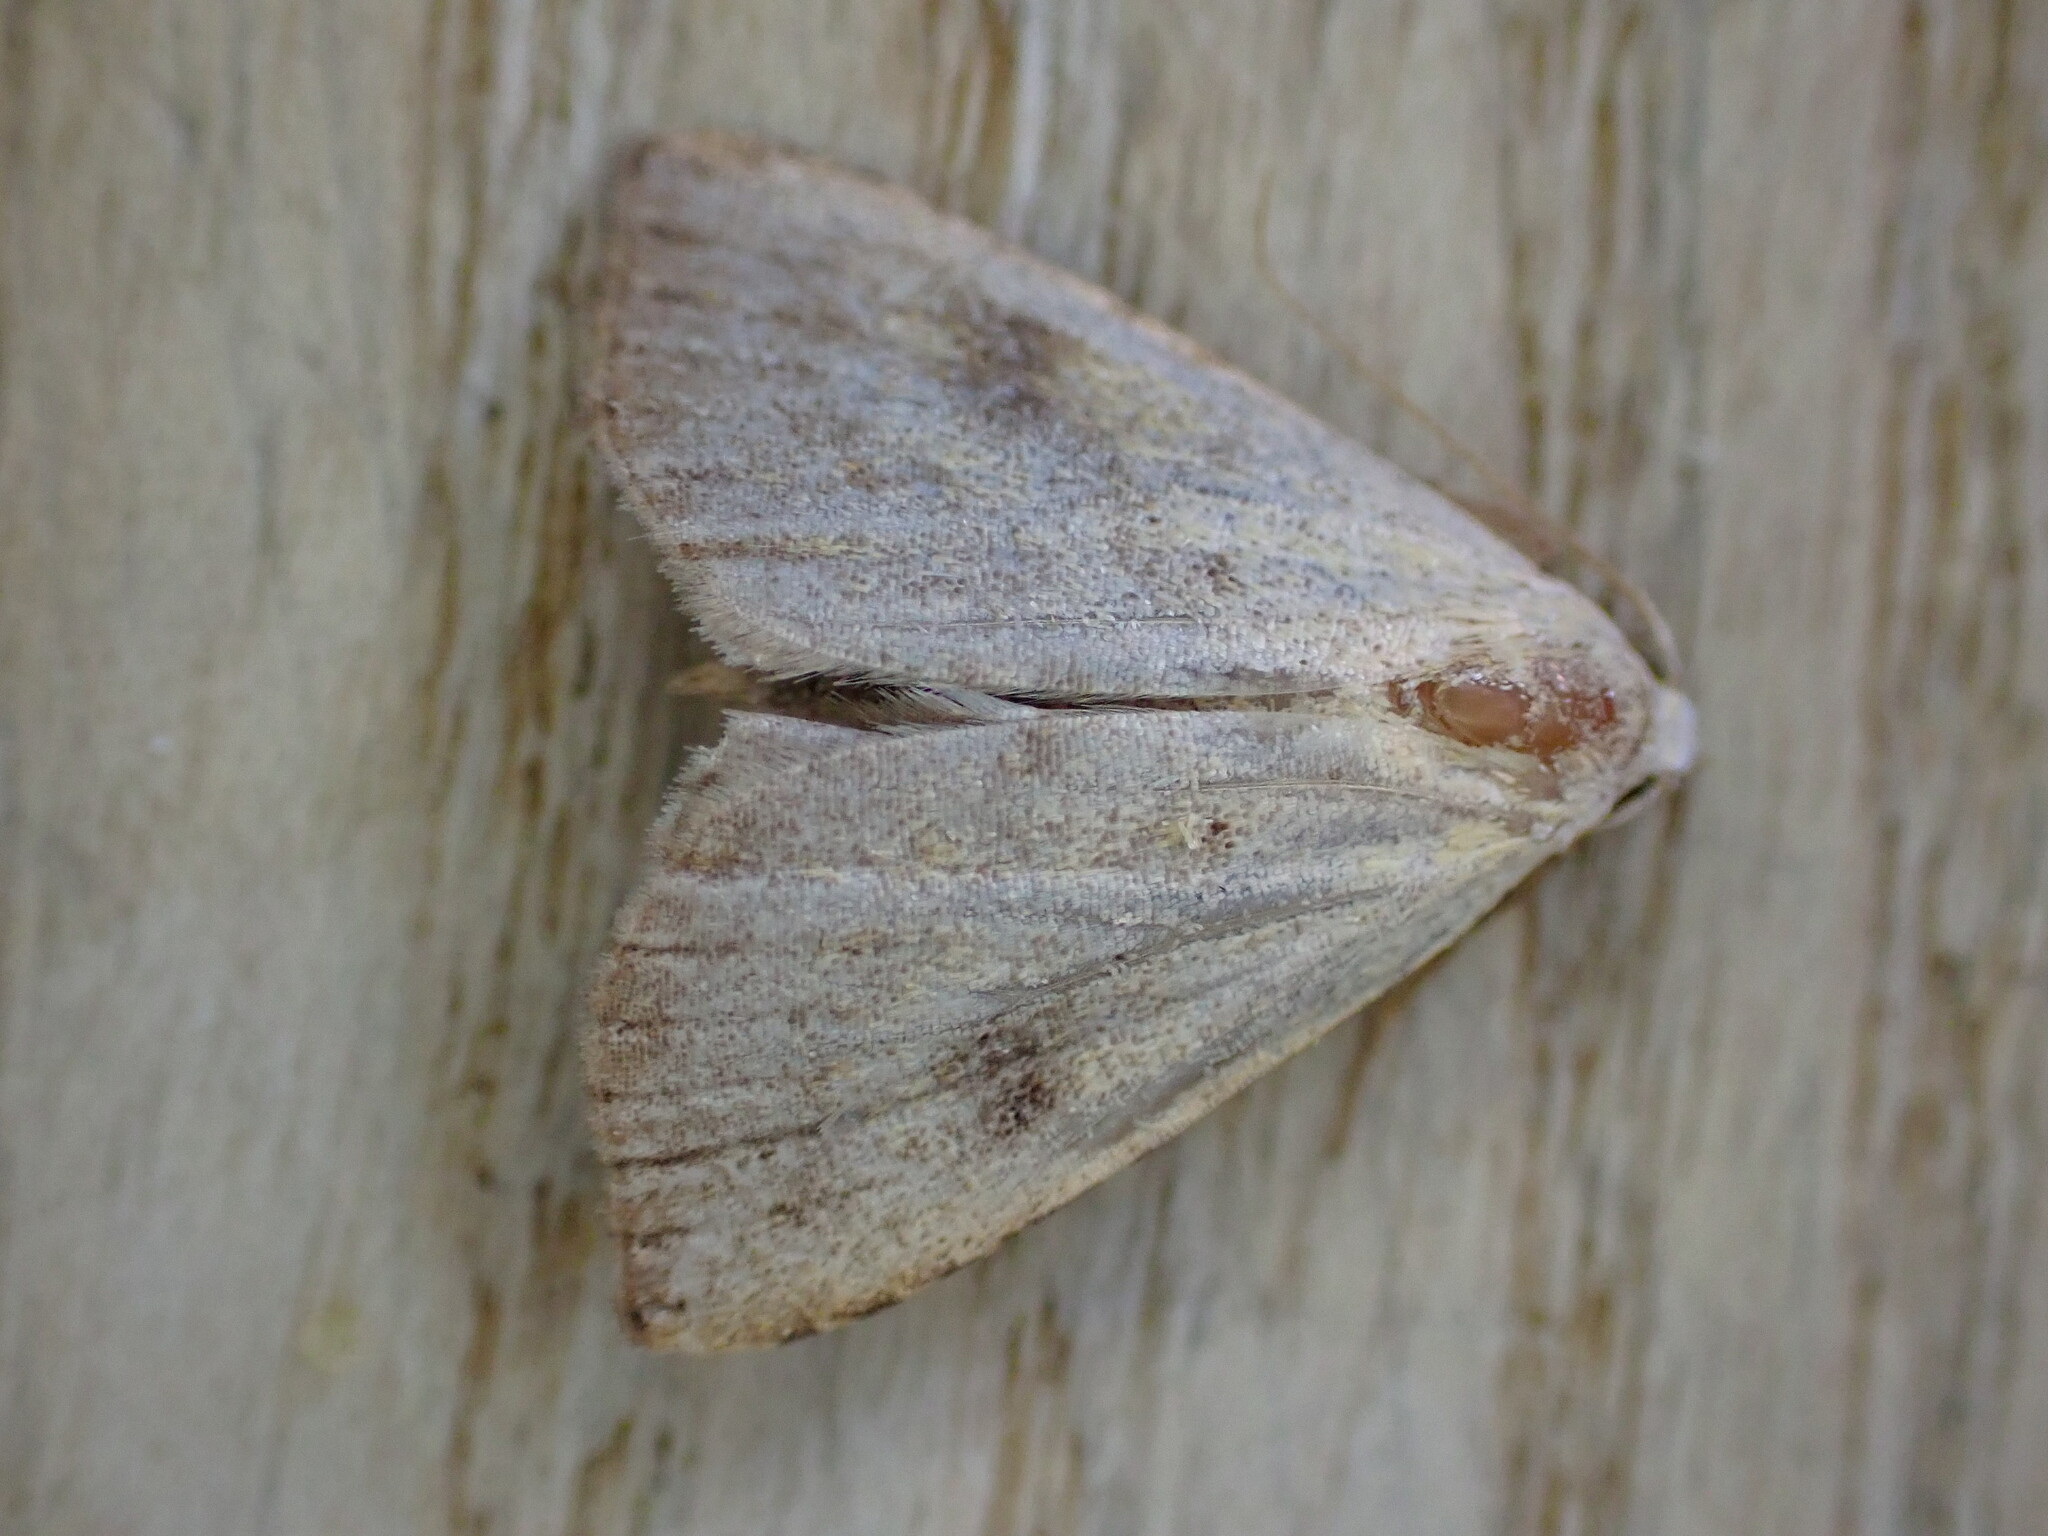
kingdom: Animalia
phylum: Arthropoda
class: Insecta
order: Lepidoptera
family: Erebidae
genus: Rivula
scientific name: Rivula sericealis
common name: Straw dot
